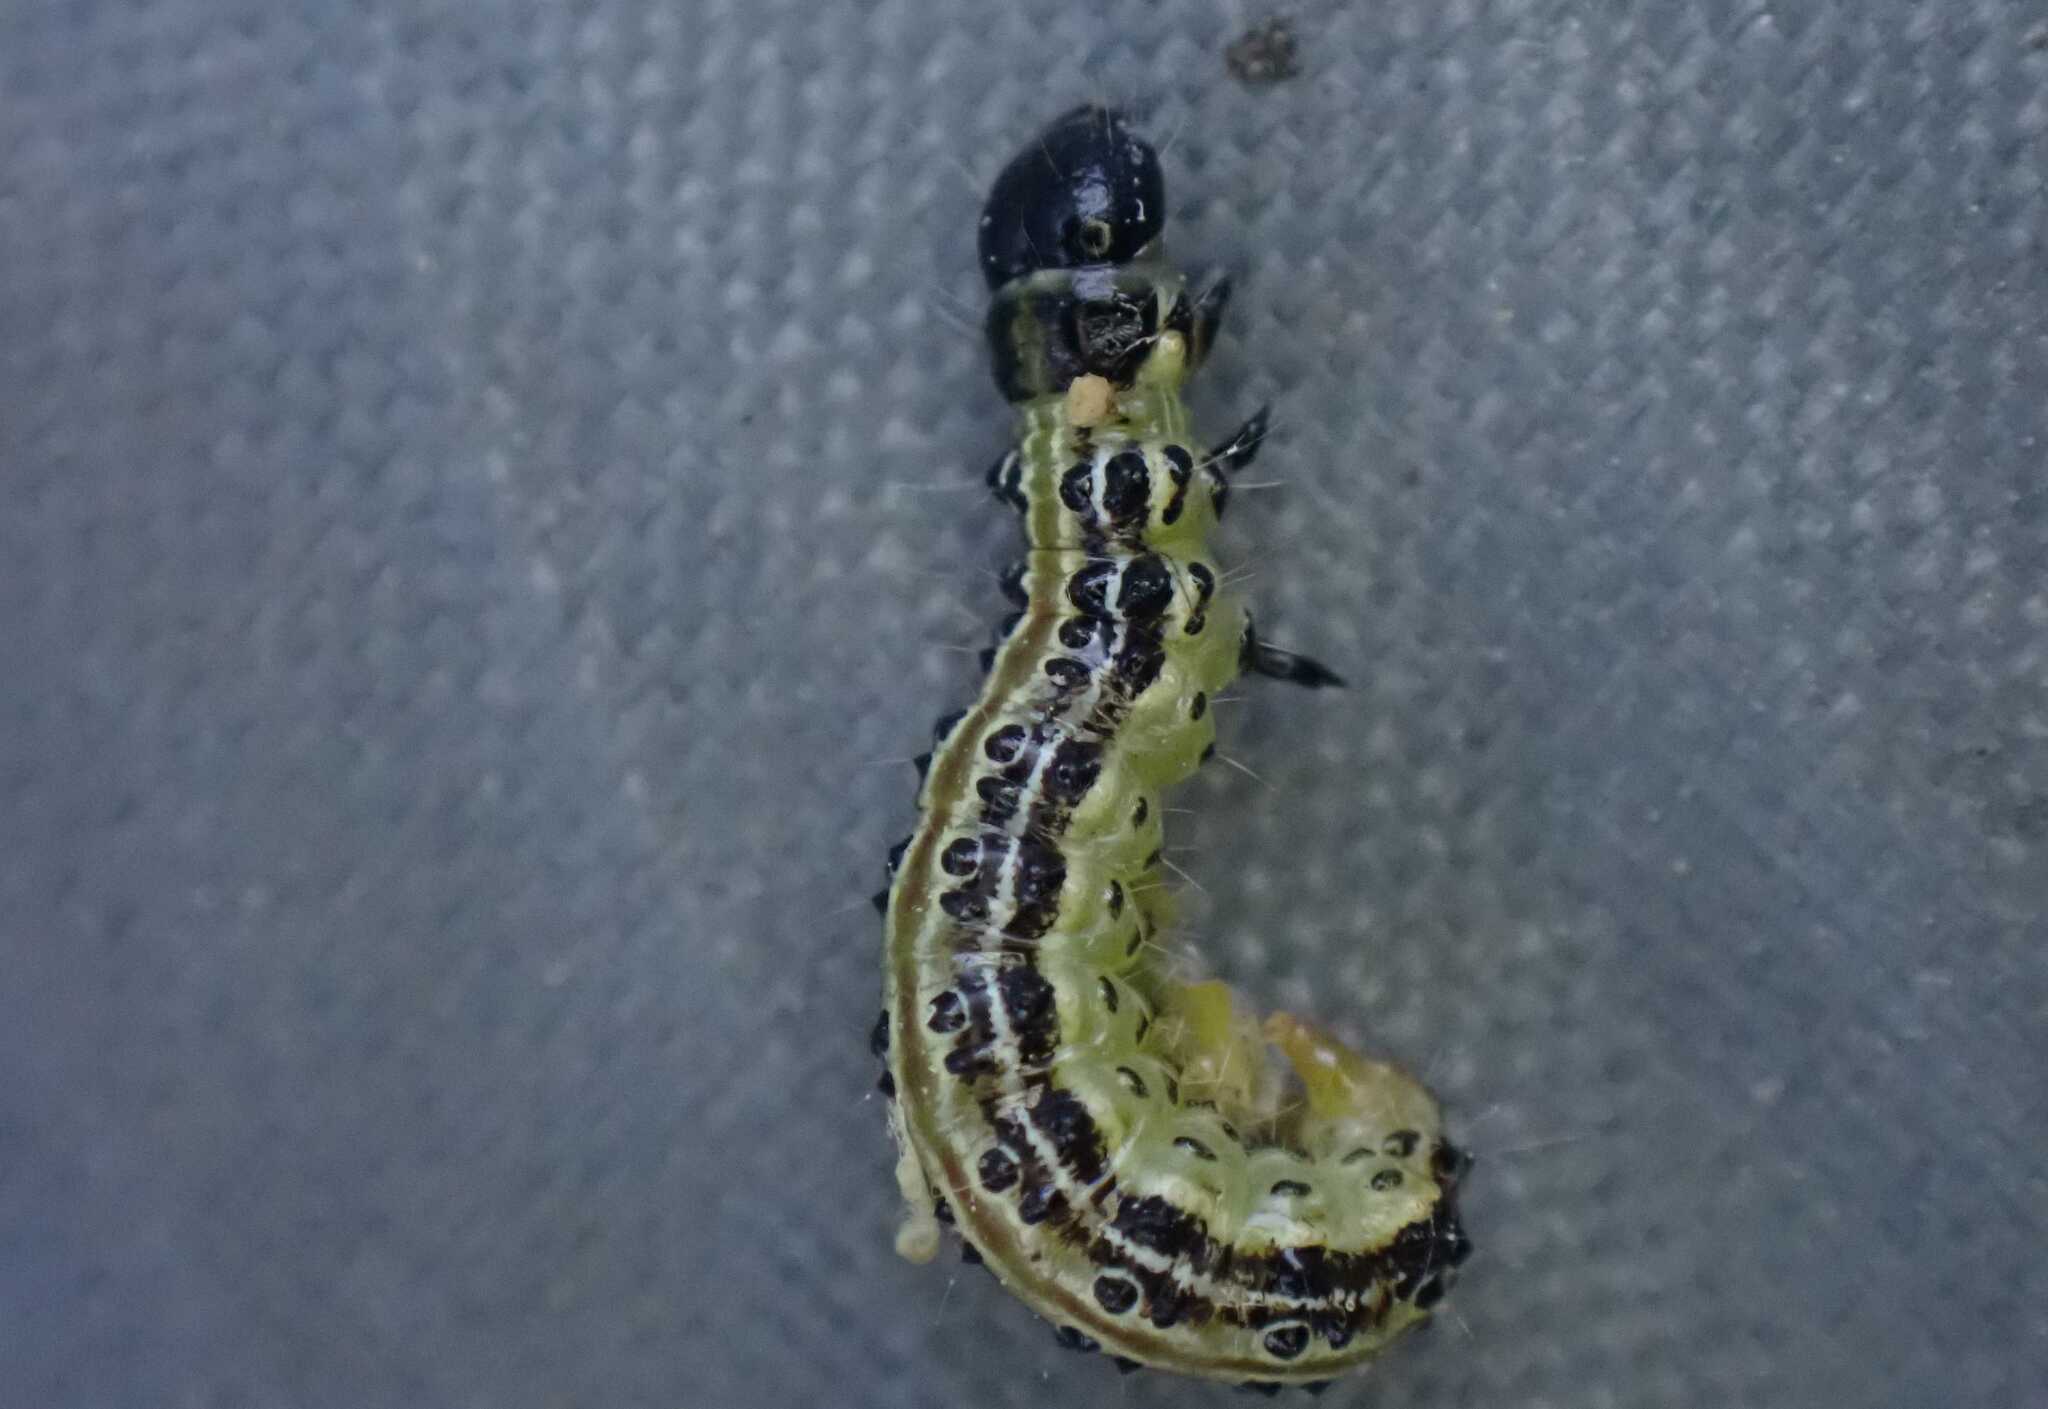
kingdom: Animalia
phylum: Arthropoda
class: Insecta
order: Lepidoptera
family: Crambidae
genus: Cydalima
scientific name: Cydalima perspectalis
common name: Box tree moth
